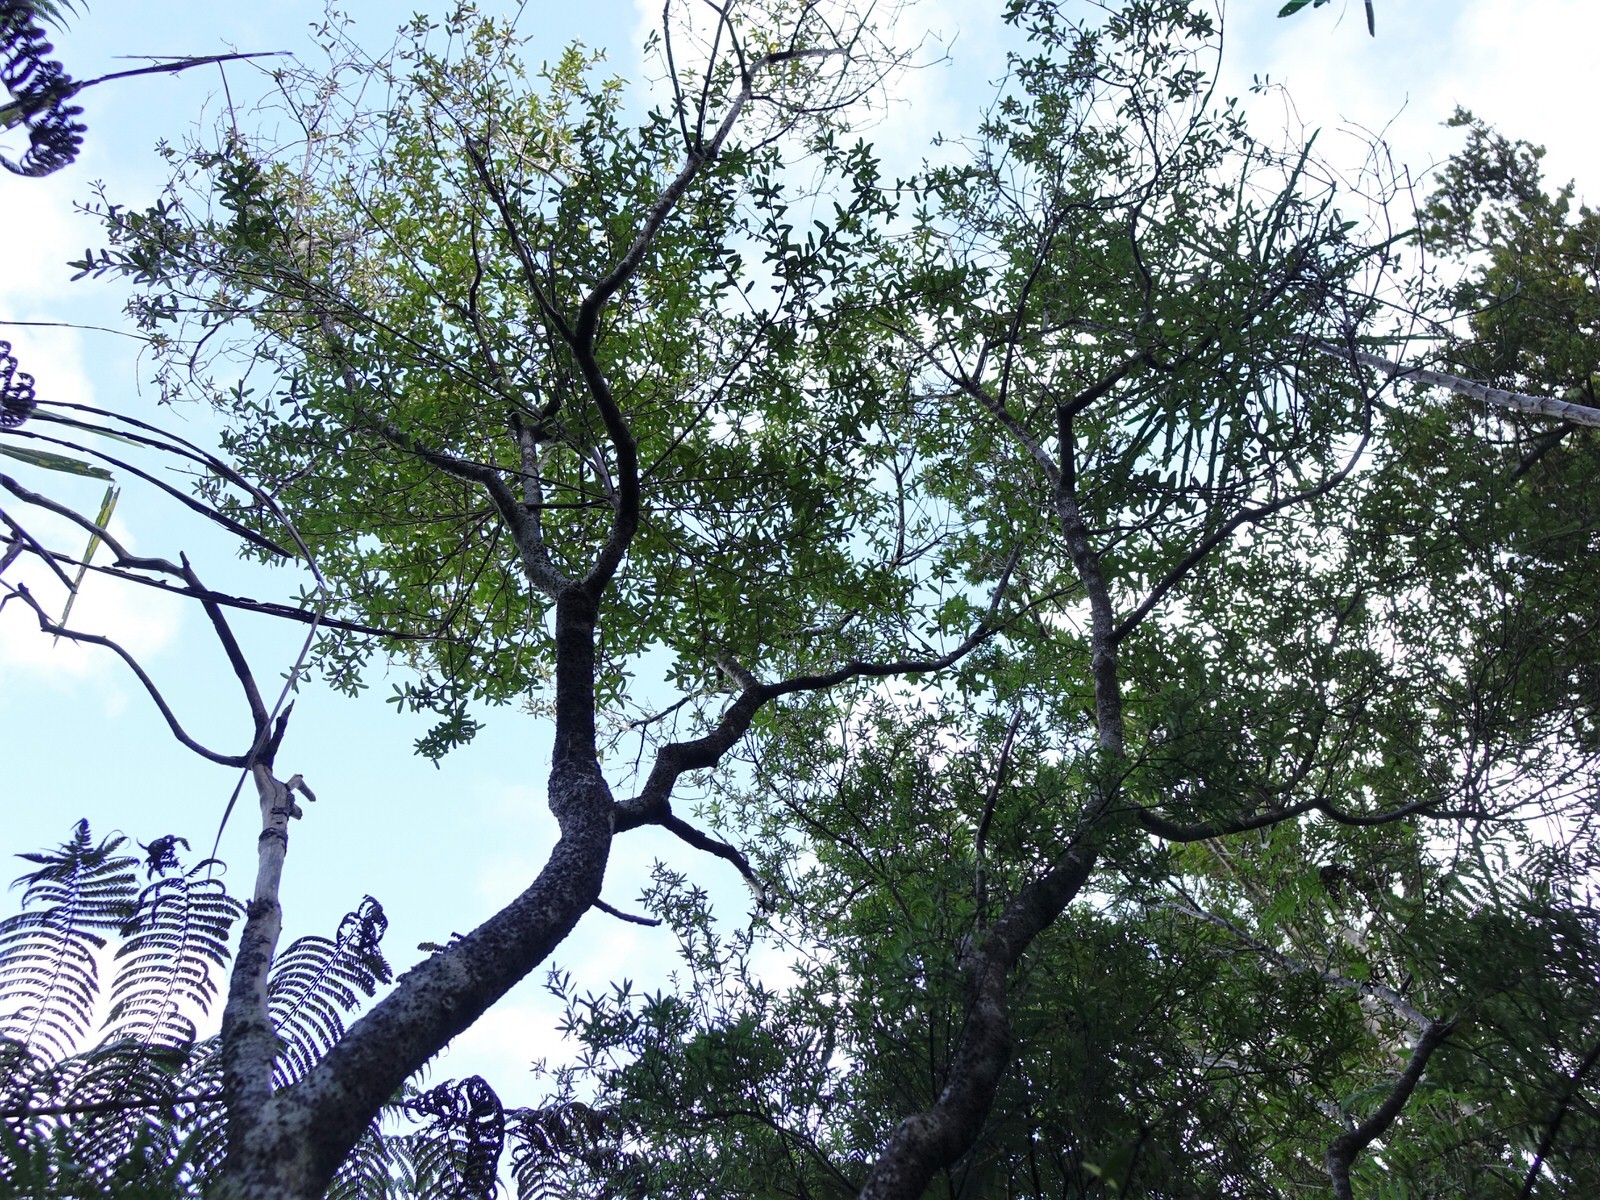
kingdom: Plantae
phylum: Tracheophyta
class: Magnoliopsida
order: Sapindales
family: Rutaceae
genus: Leionema
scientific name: Leionema nudum
